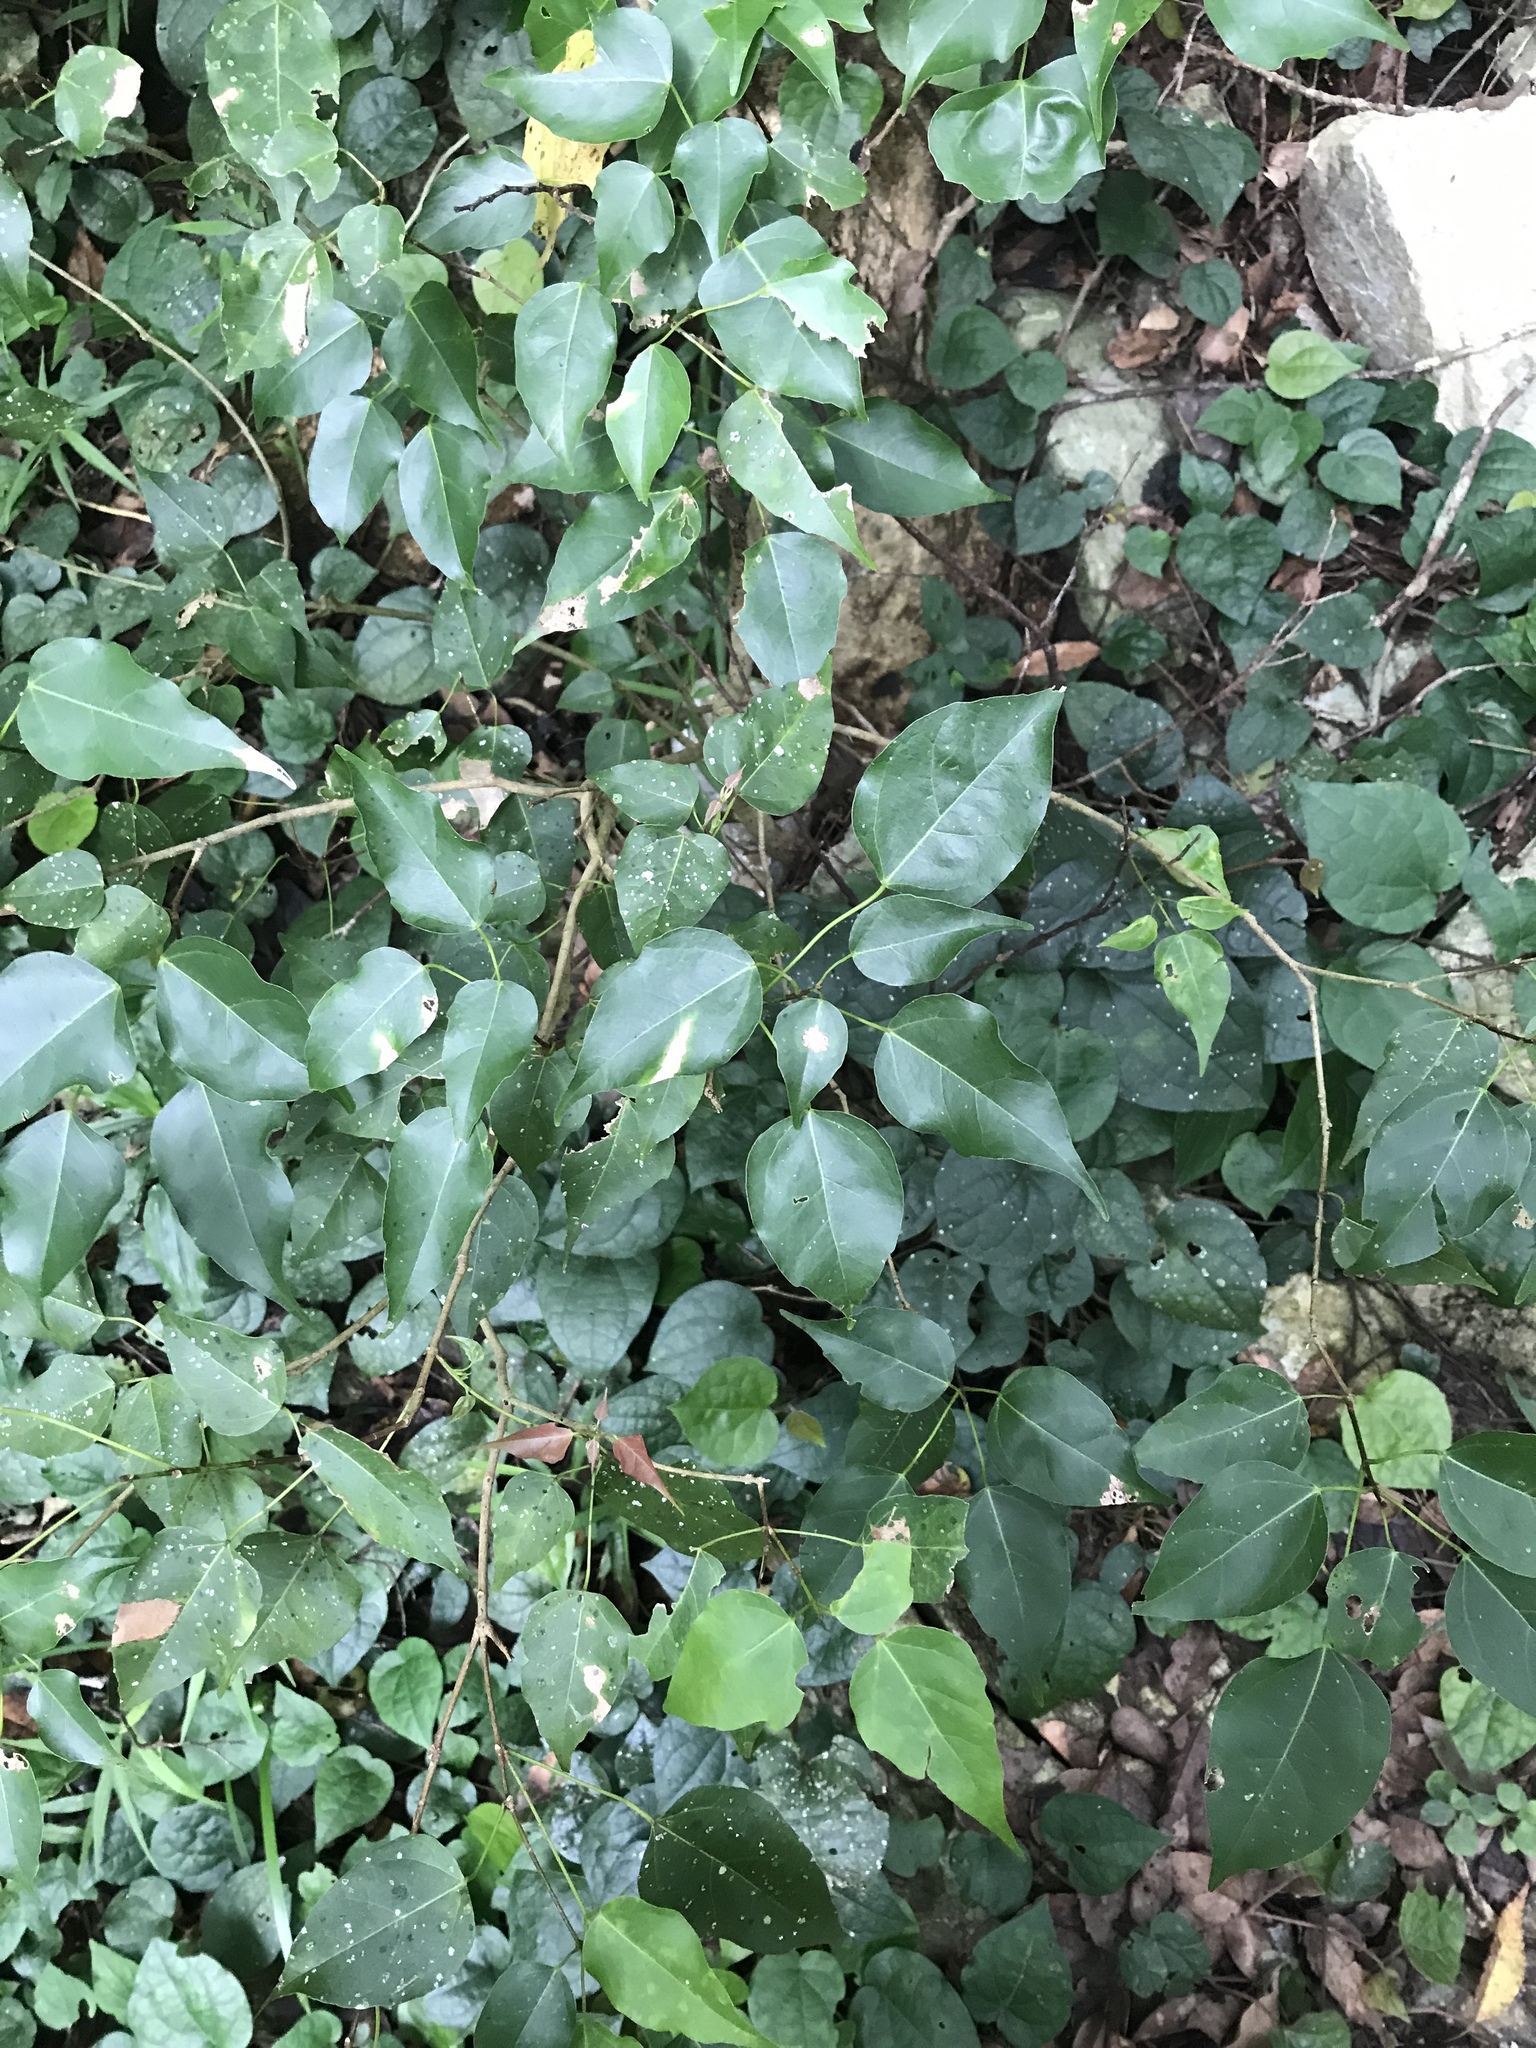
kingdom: Plantae
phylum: Tracheophyta
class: Magnoliopsida
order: Sapindales
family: Sapindaceae
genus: Acer
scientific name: Acer oblongum
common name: Himalayan maple
